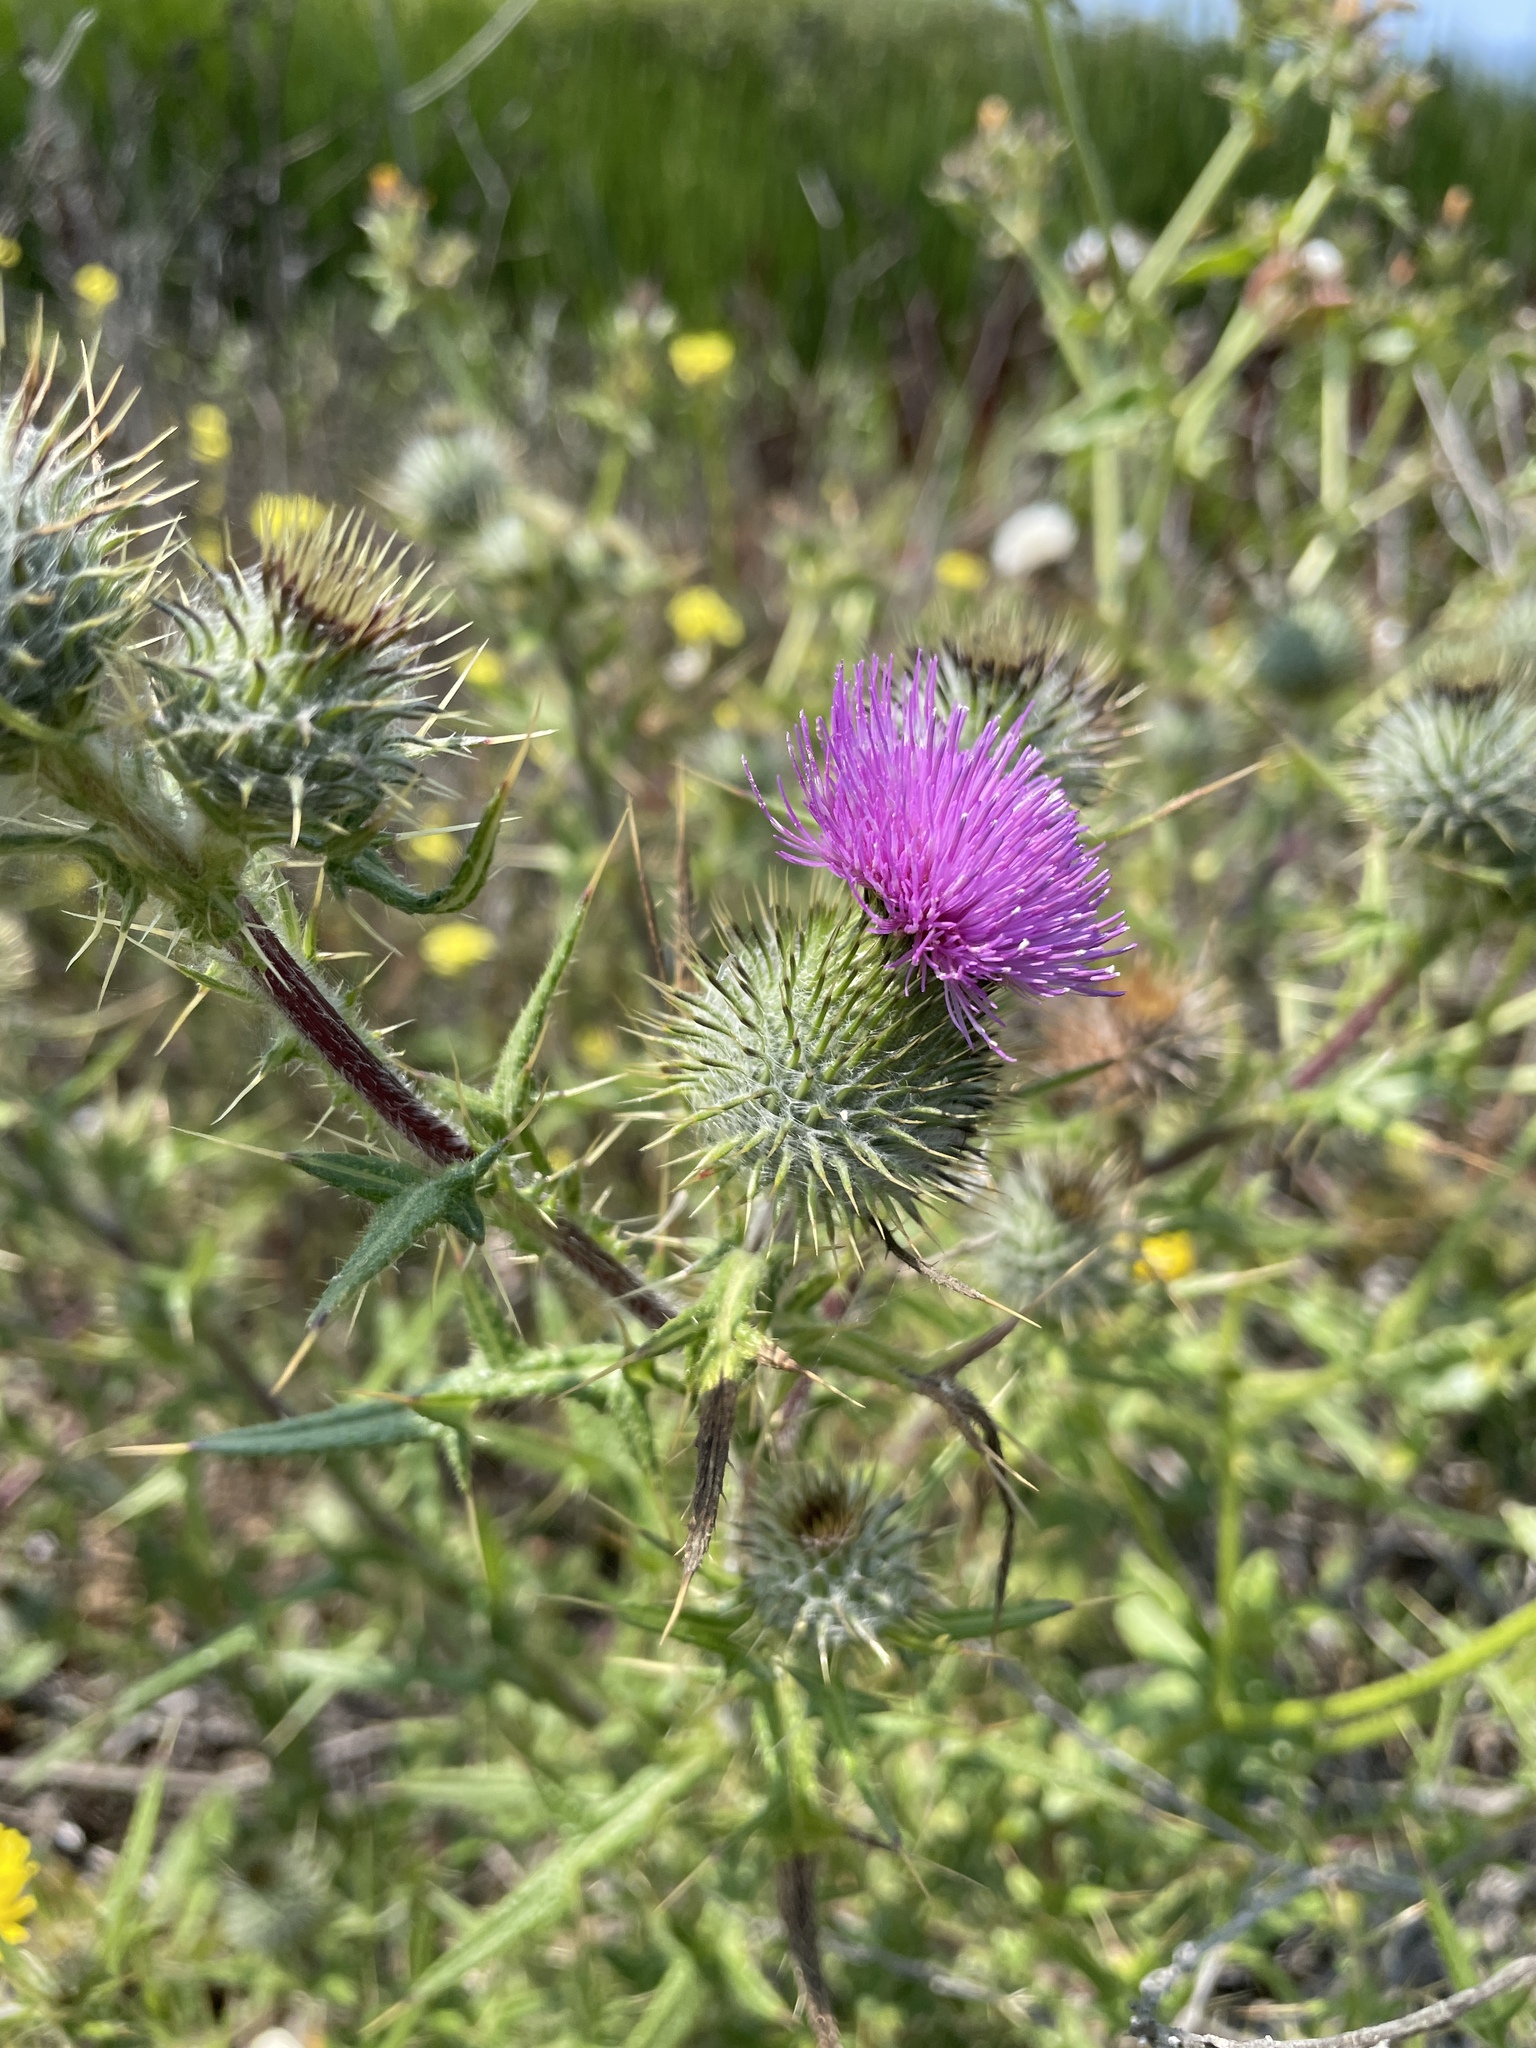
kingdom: Plantae
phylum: Tracheophyta
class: Magnoliopsida
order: Asterales
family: Asteraceae
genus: Cirsium
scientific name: Cirsium vulgare
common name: Bull thistle
